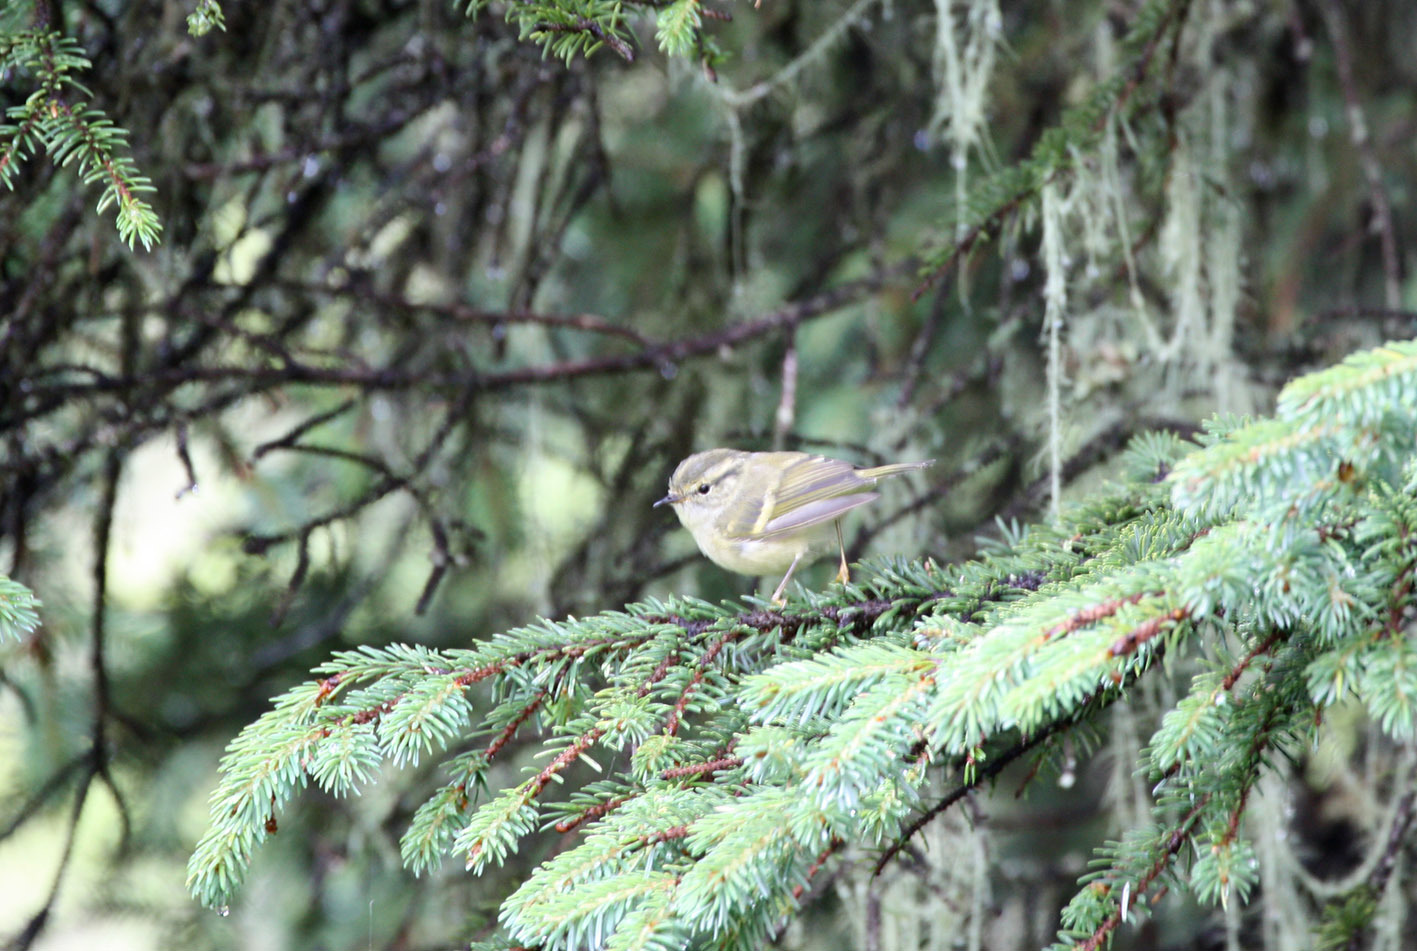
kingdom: Animalia
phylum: Chordata
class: Aves
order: Passeriformes
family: Phylloscopidae
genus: Phylloscopus
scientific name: Phylloscopus chloronotus
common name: Lemon-rumped warbler
